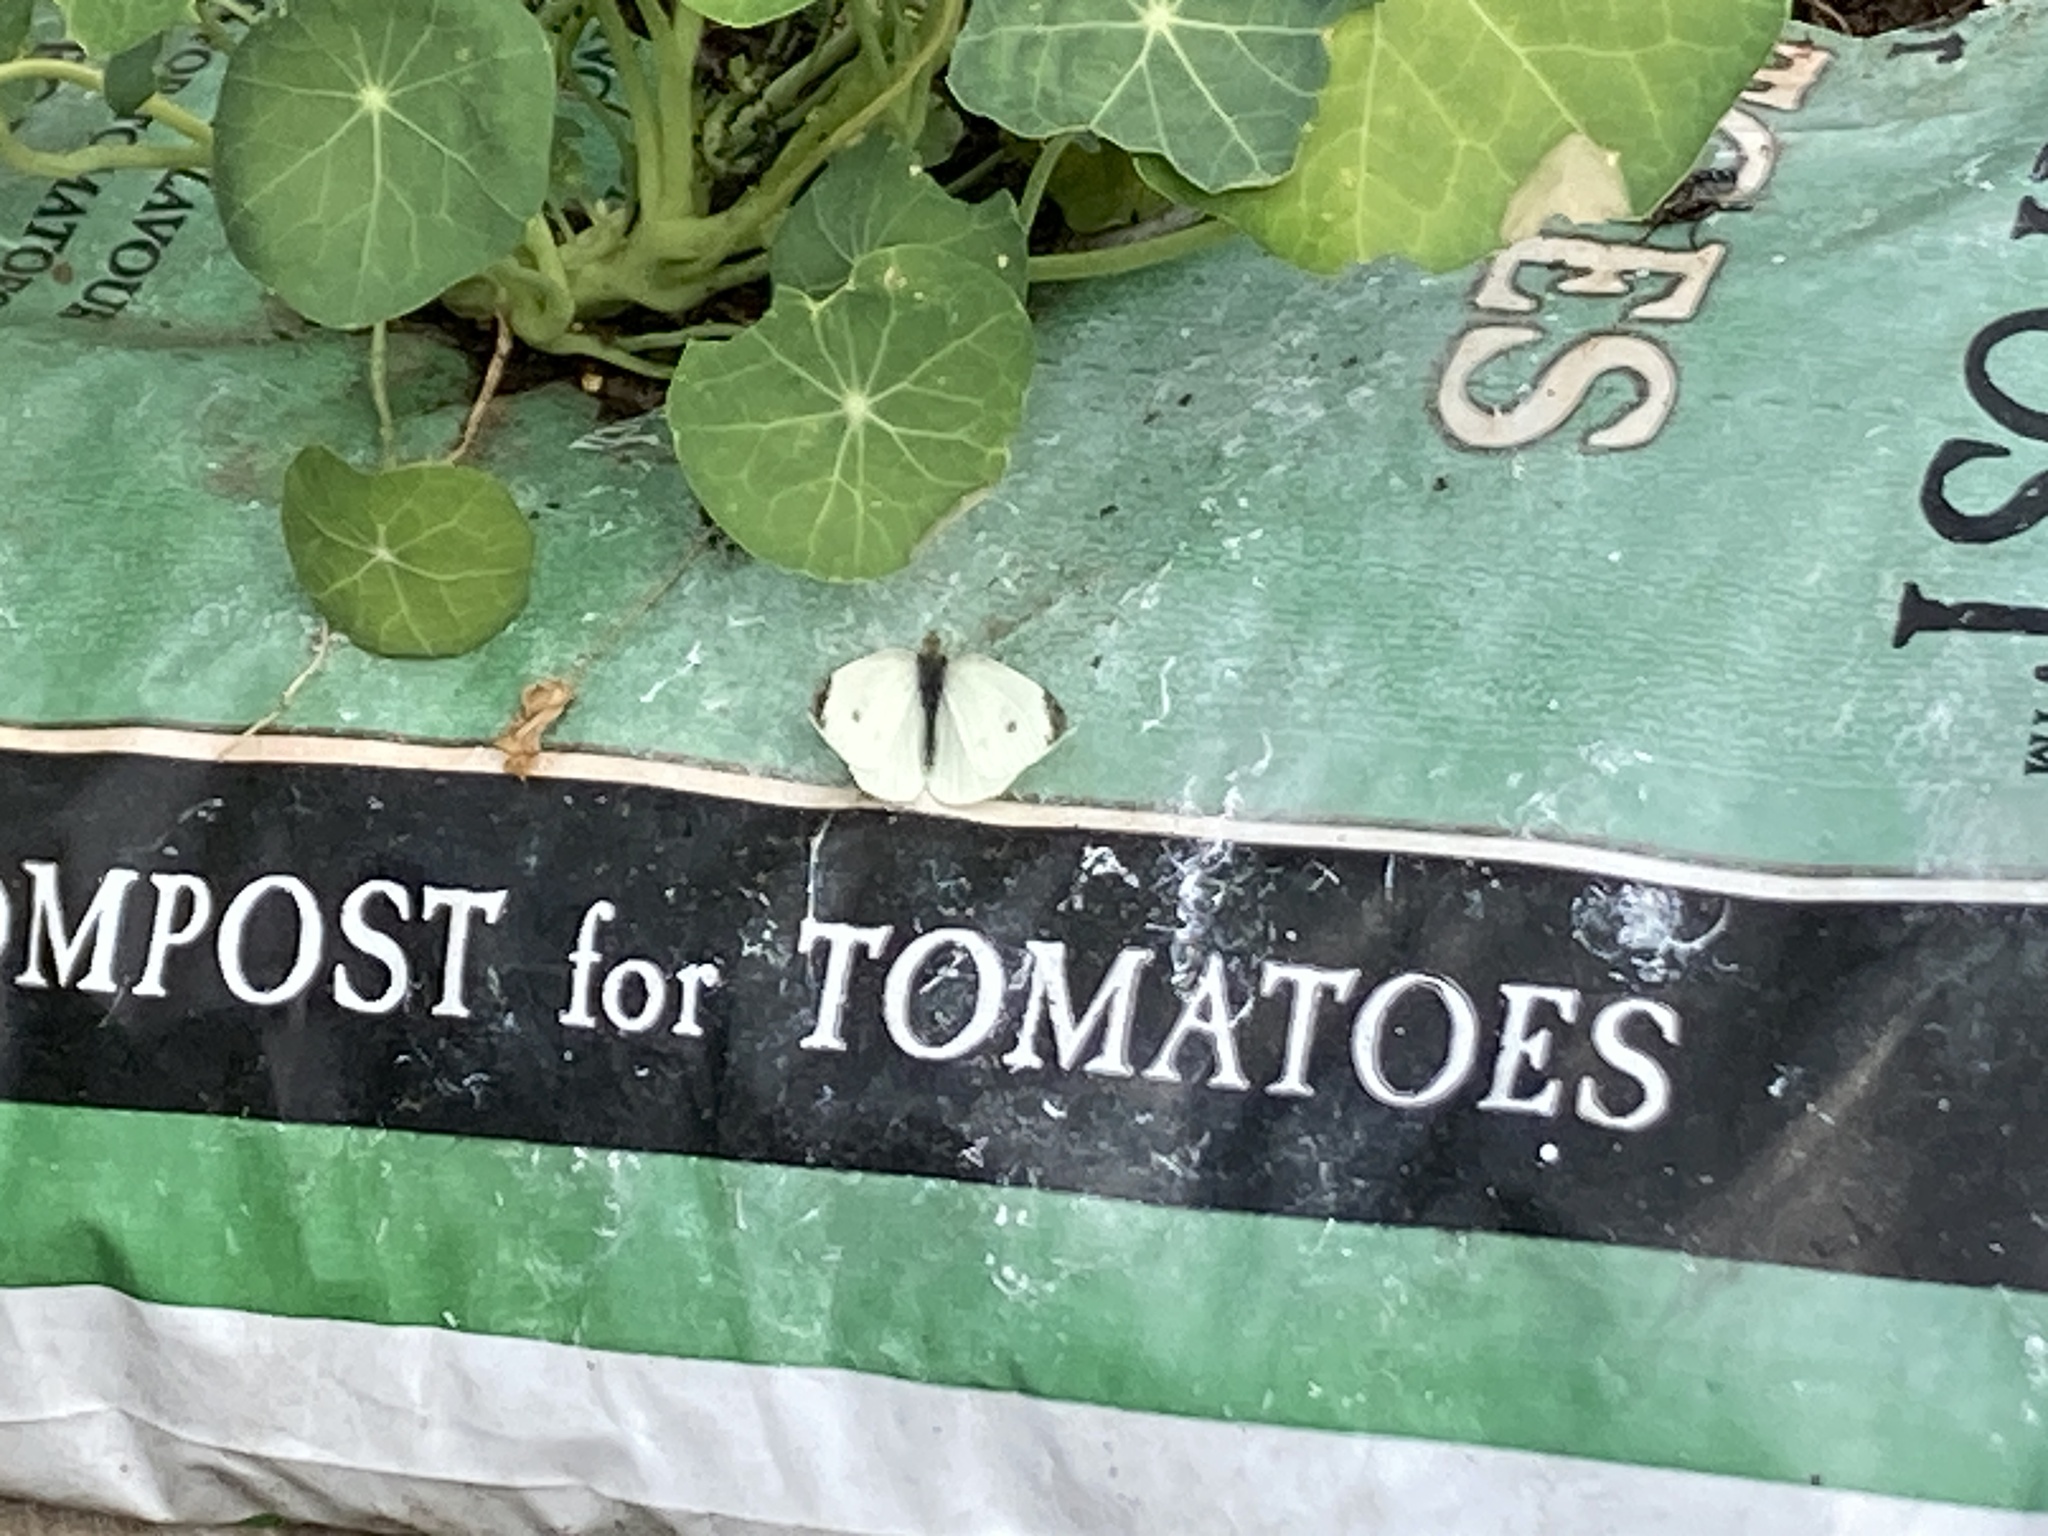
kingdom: Animalia
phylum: Arthropoda
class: Insecta
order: Lepidoptera
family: Pieridae
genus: Pieris
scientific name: Pieris rapae
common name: Small white
